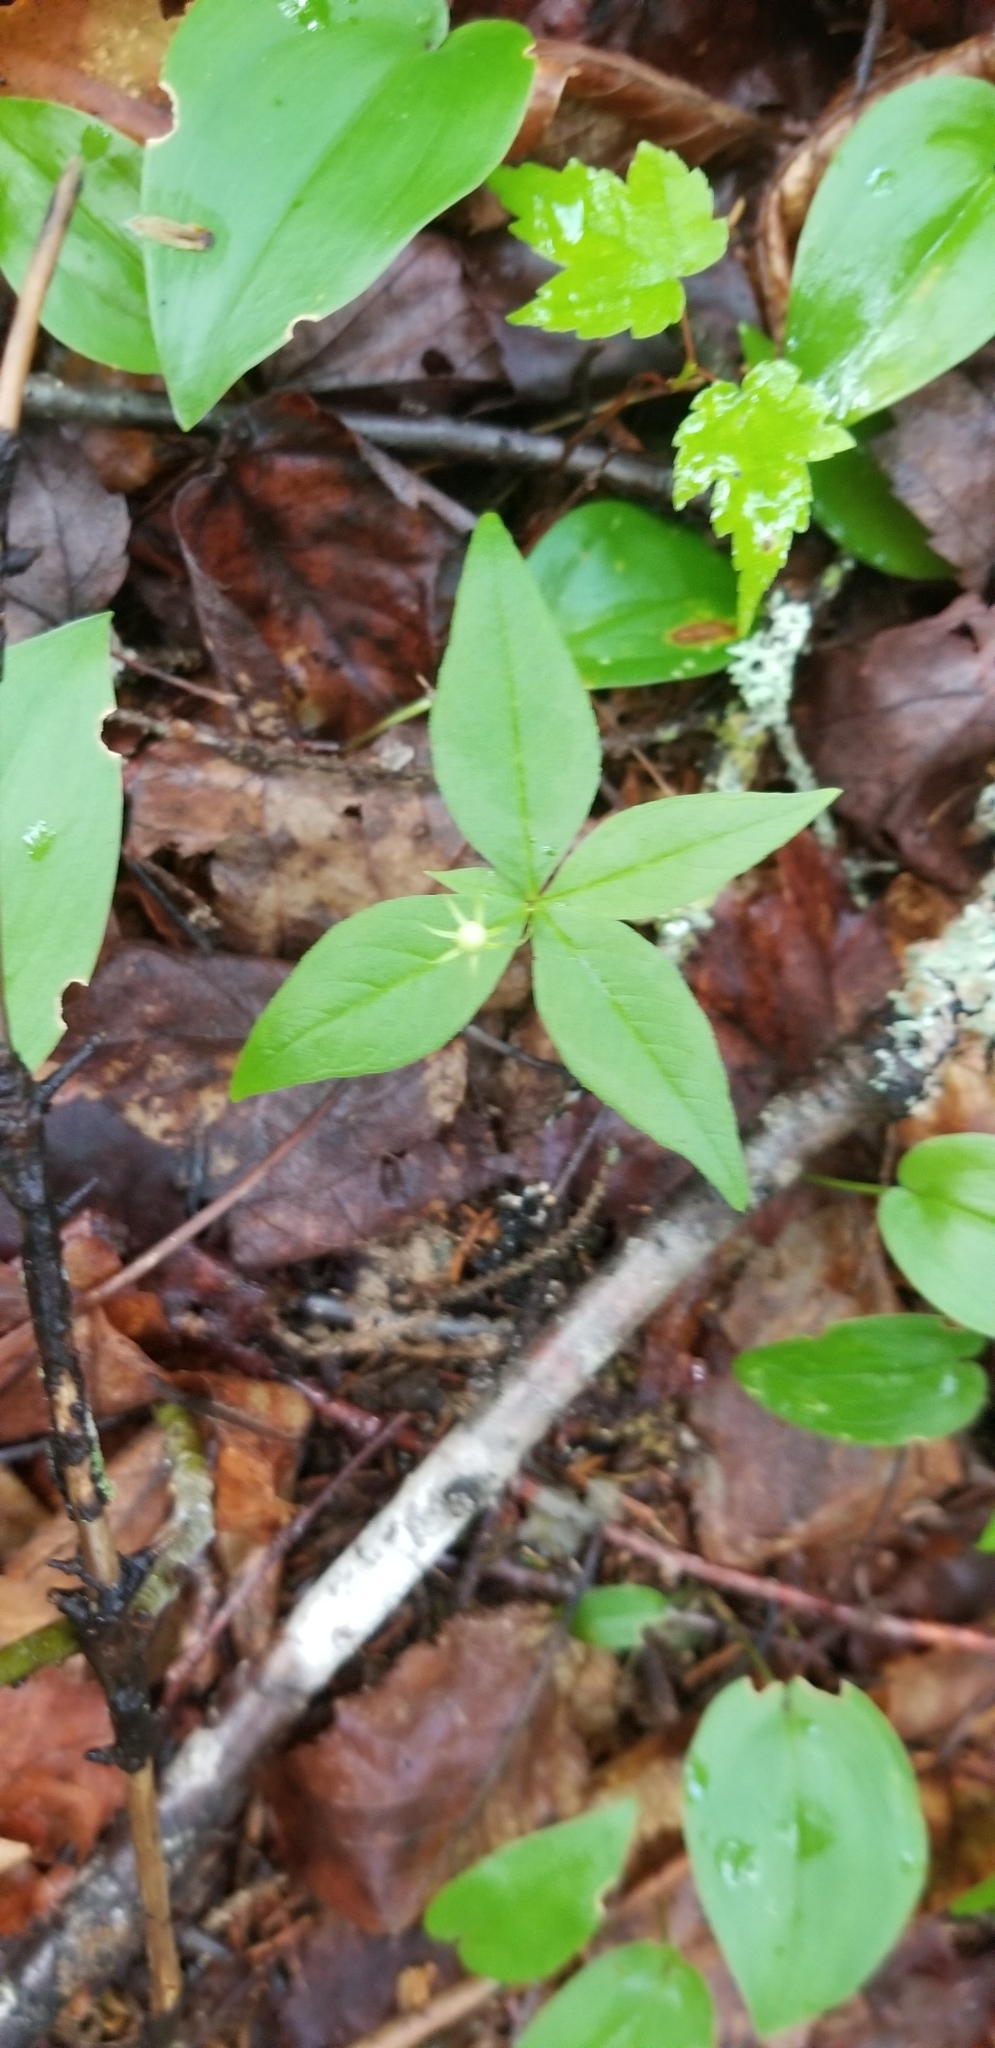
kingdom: Plantae
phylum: Tracheophyta
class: Magnoliopsida
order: Ericales
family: Primulaceae
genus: Lysimachia
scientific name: Lysimachia borealis
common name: American starflower
